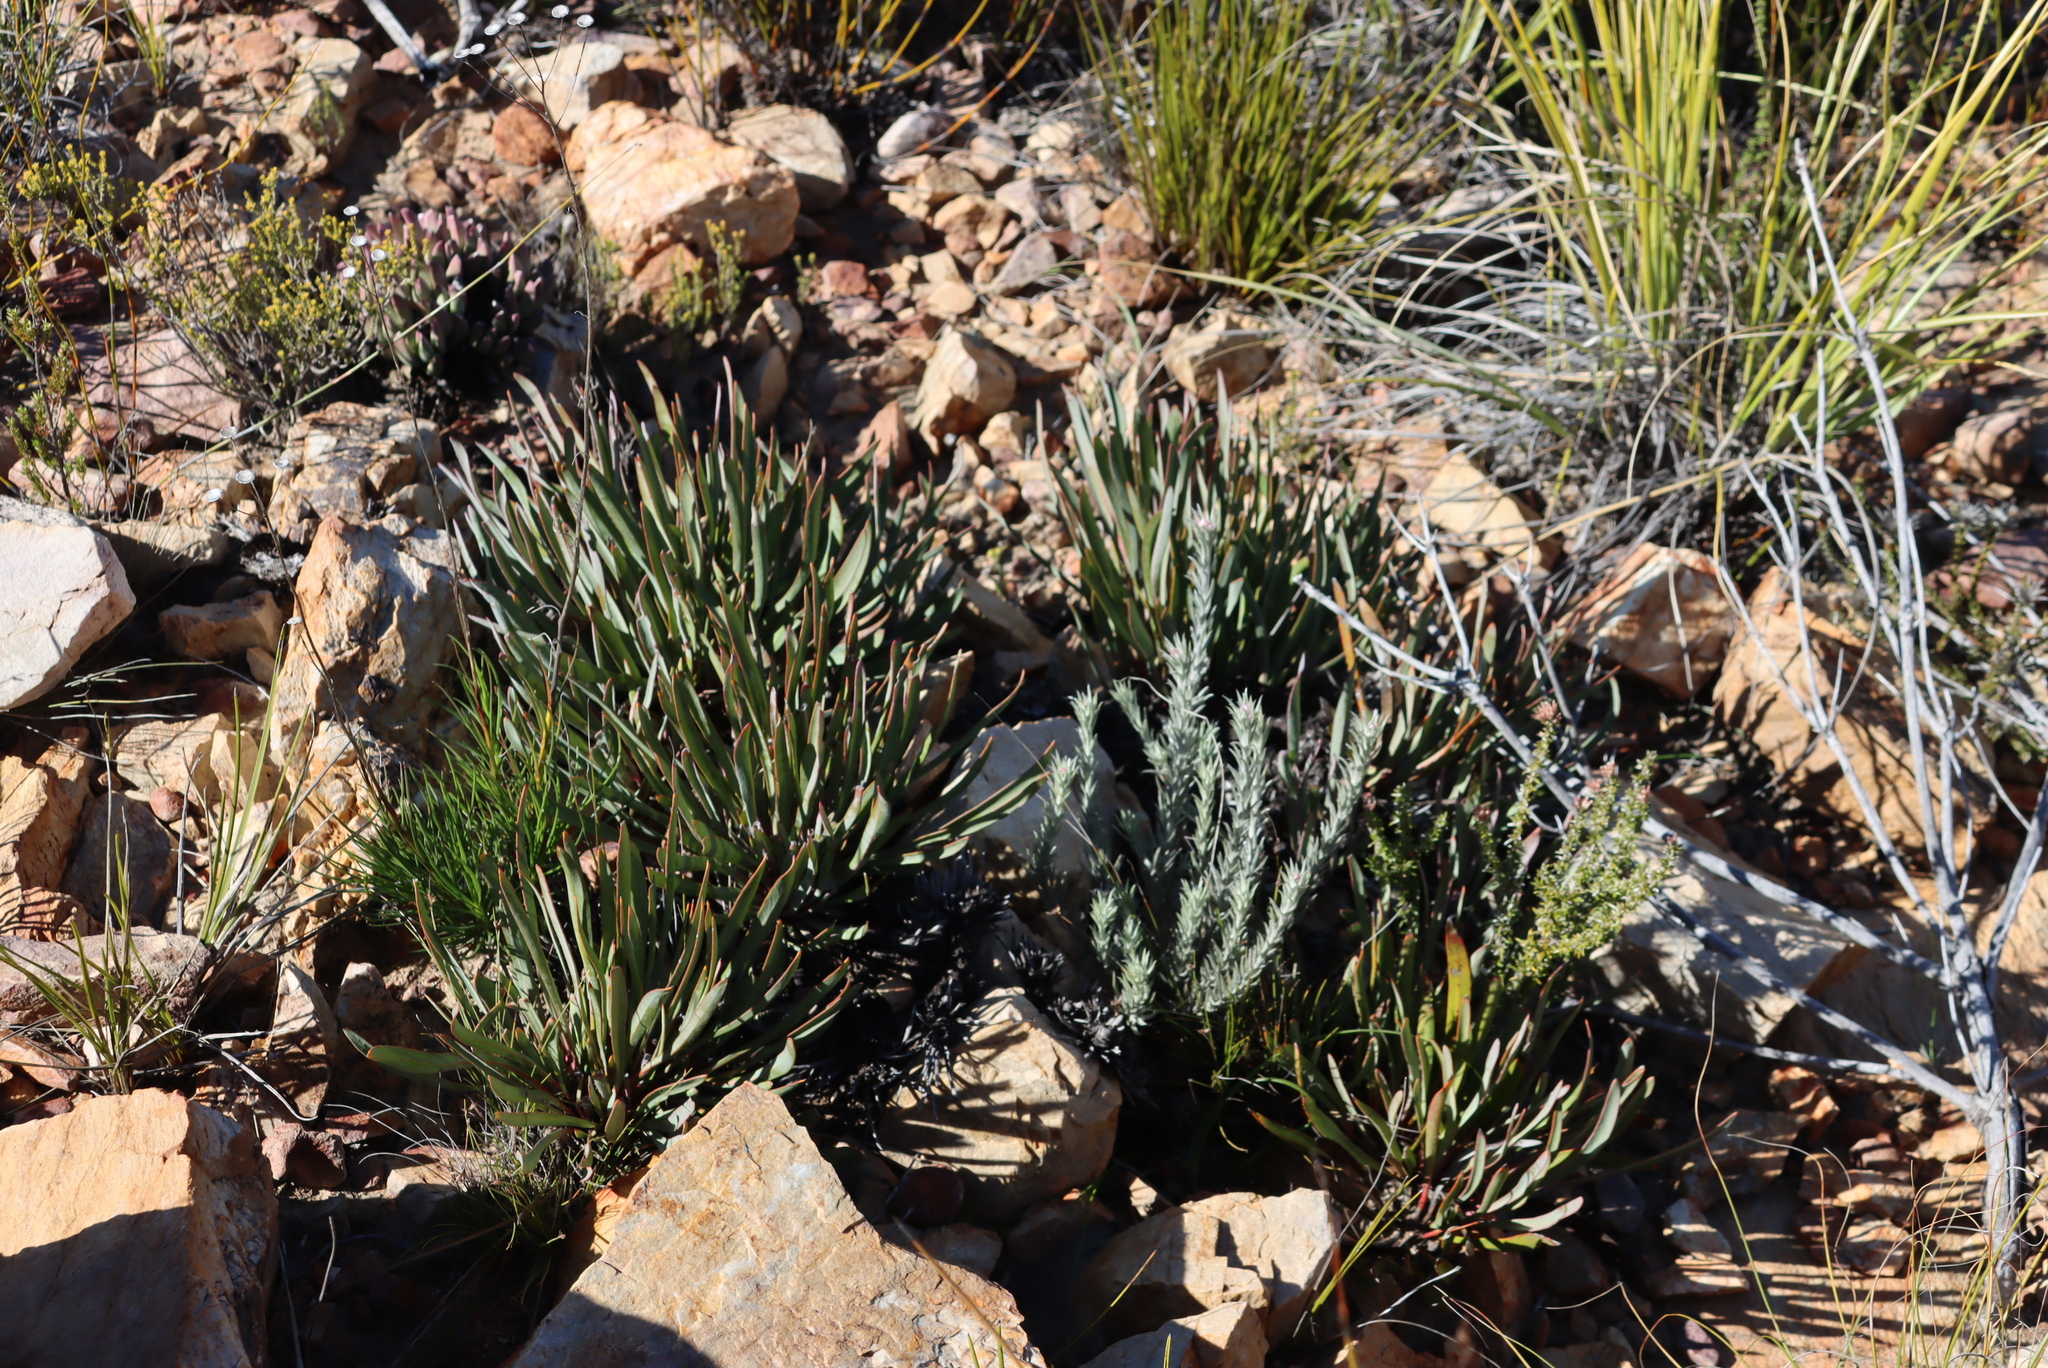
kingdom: Plantae
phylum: Tracheophyta
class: Magnoliopsida
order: Proteales
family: Proteaceae
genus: Protea
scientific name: Protea intonsa
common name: Tufted sugarbush
